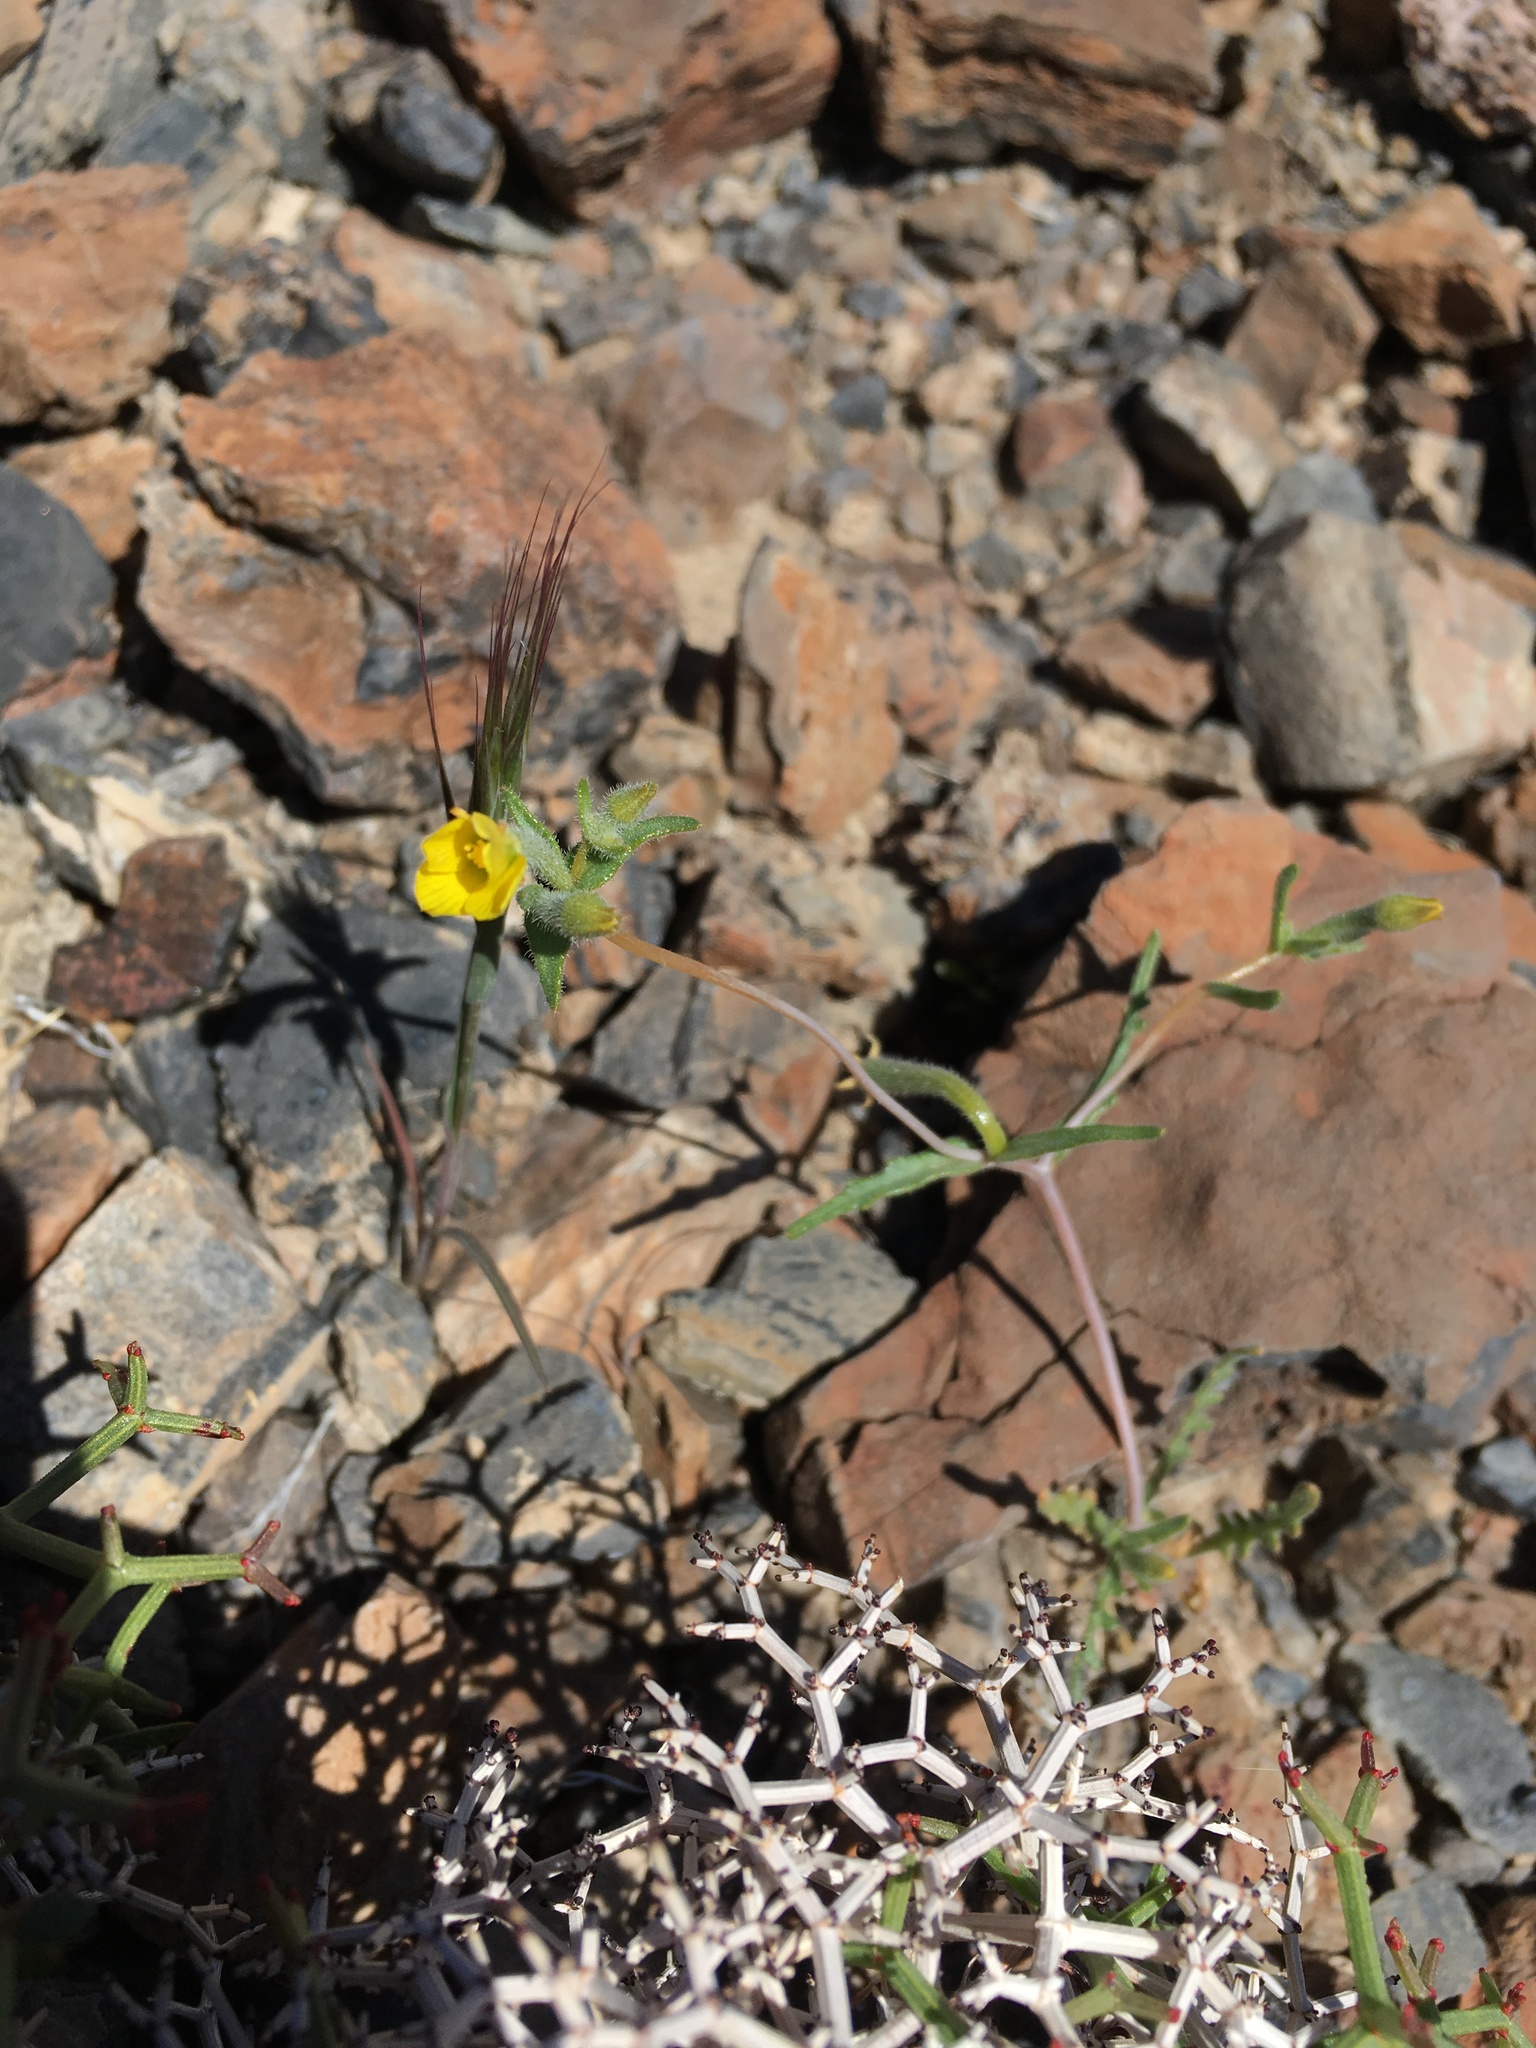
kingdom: Plantae
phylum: Tracheophyta
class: Magnoliopsida
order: Cornales
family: Loasaceae
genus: Mentzelia
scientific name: Mentzelia albicaulis
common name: White-stem blazingstar
